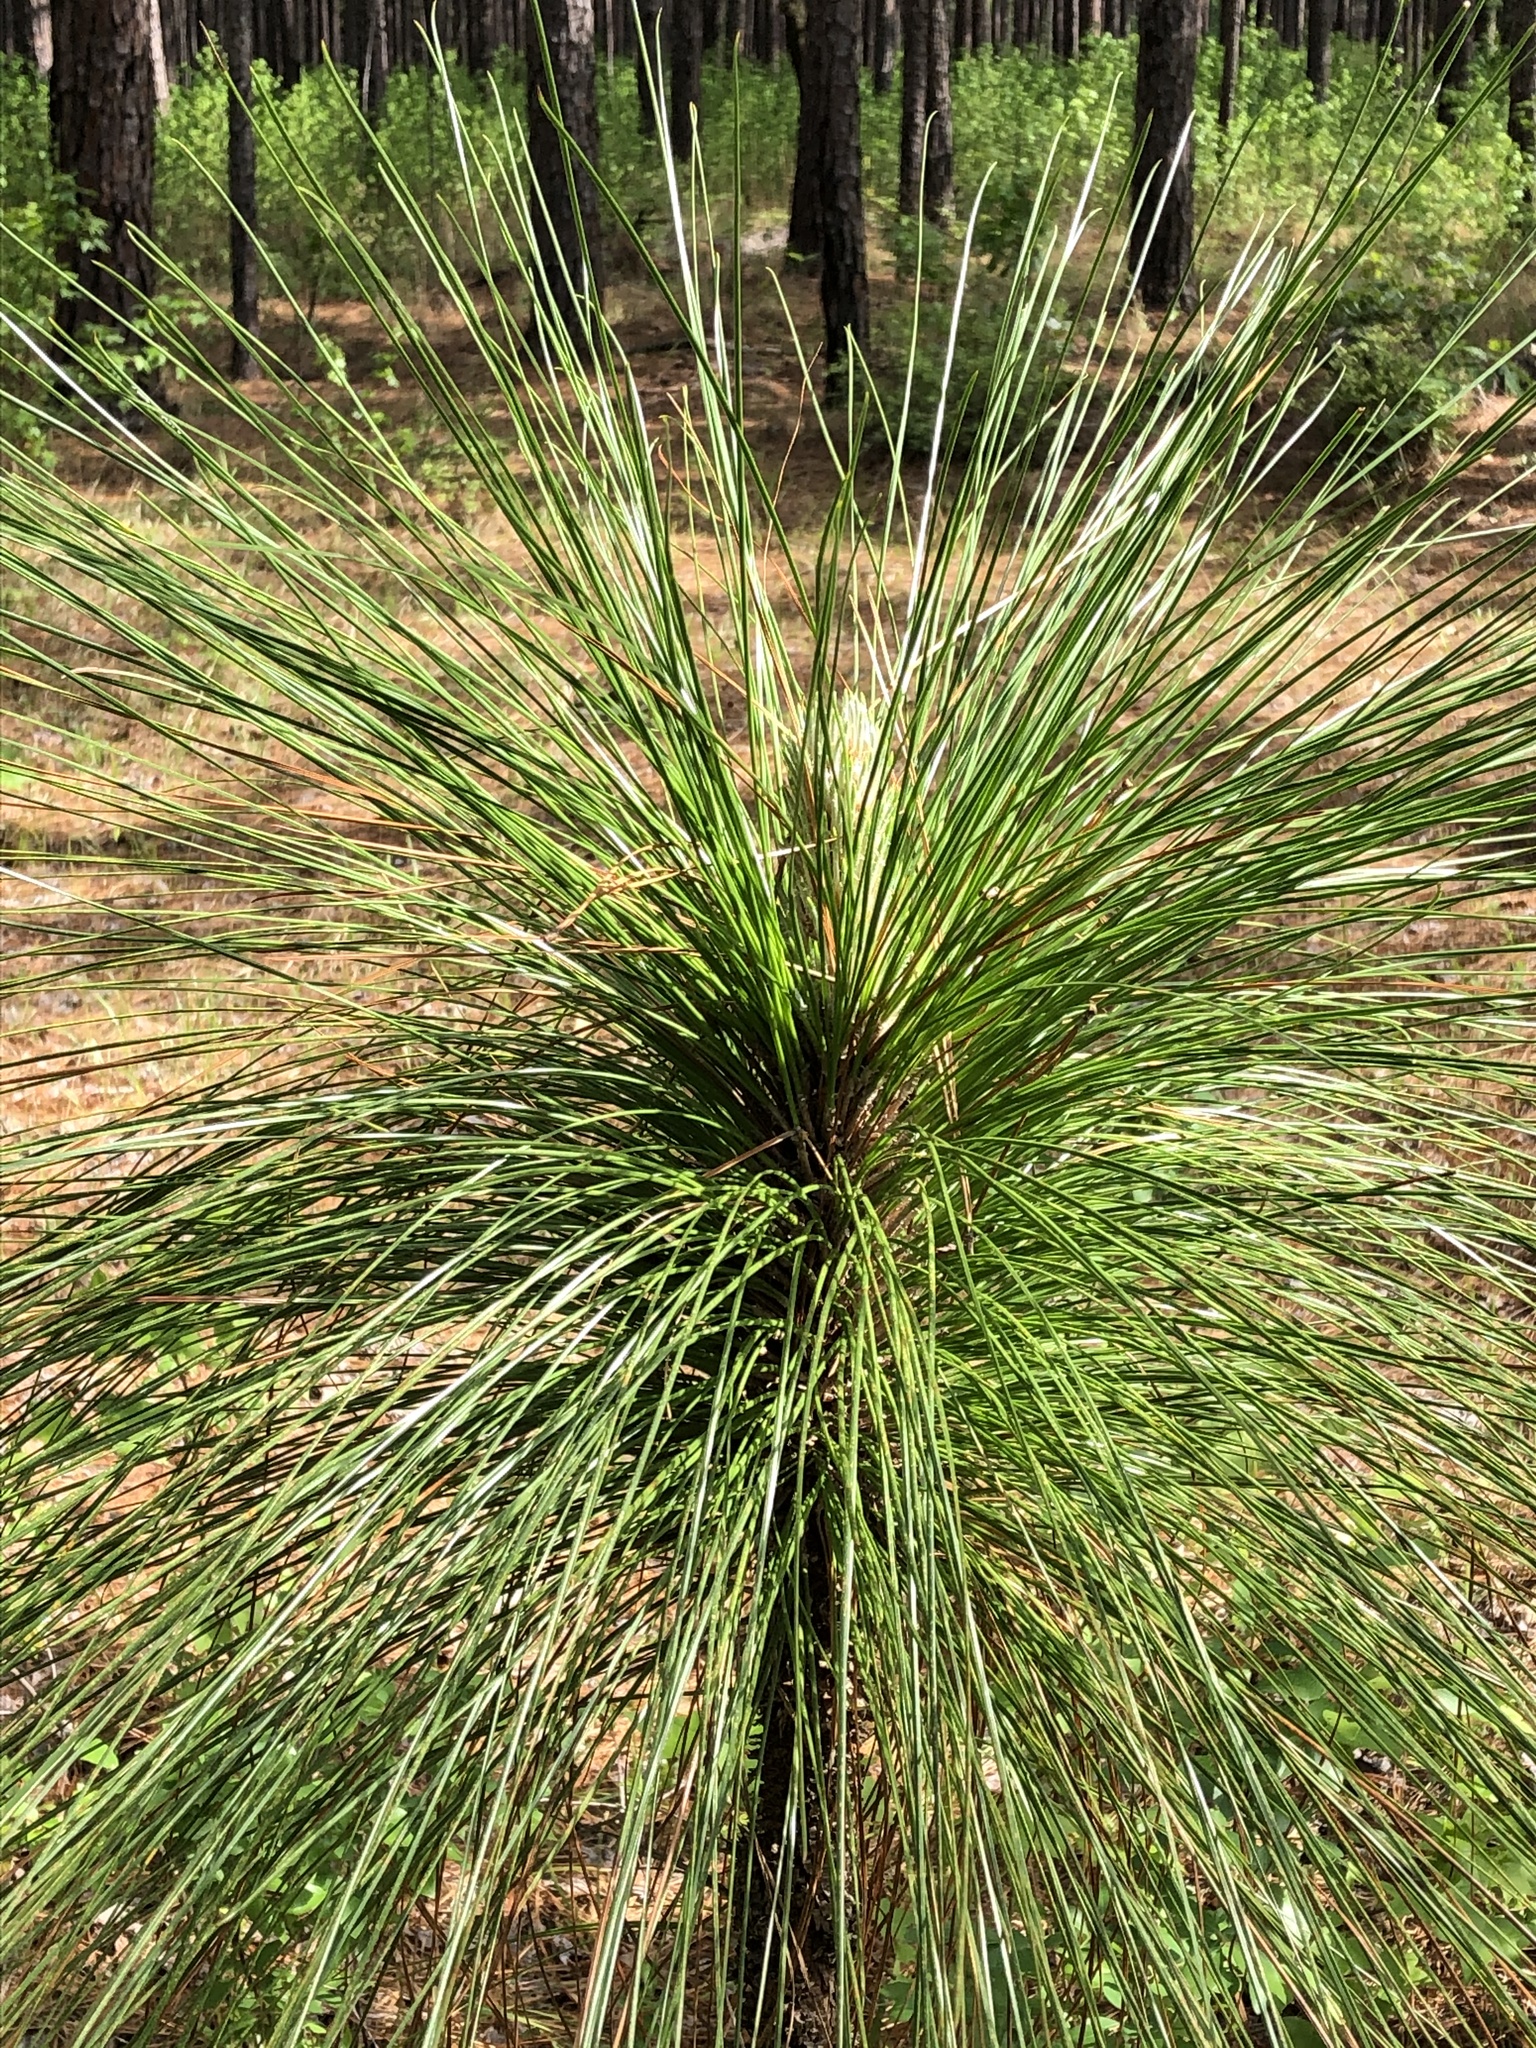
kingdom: Plantae
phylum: Tracheophyta
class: Pinopsida
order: Pinales
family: Pinaceae
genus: Pinus
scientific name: Pinus palustris
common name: Longleaf pine
